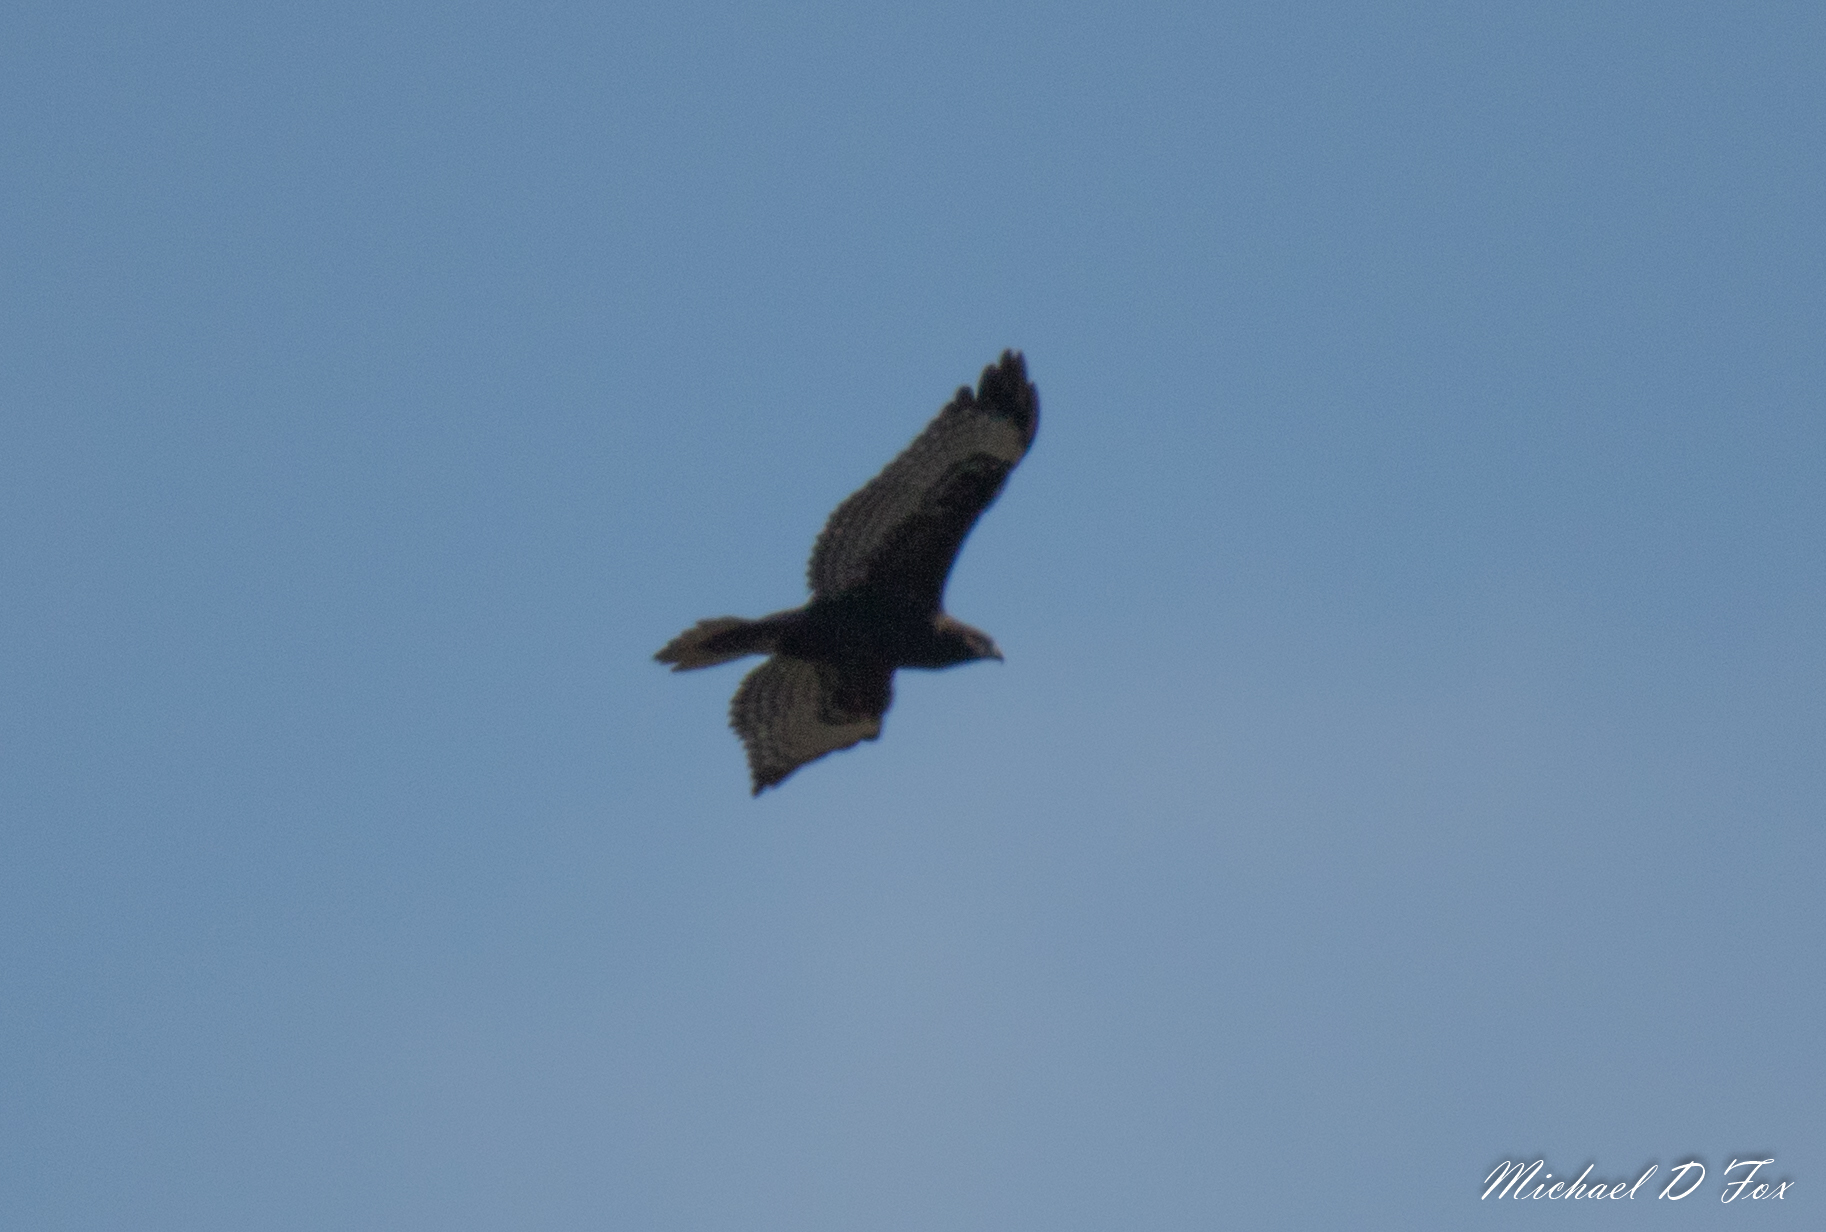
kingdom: Animalia
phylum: Chordata
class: Aves
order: Accipitriformes
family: Accipitridae
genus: Buteo
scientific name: Buteo jamaicensis
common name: Red-tailed hawk
